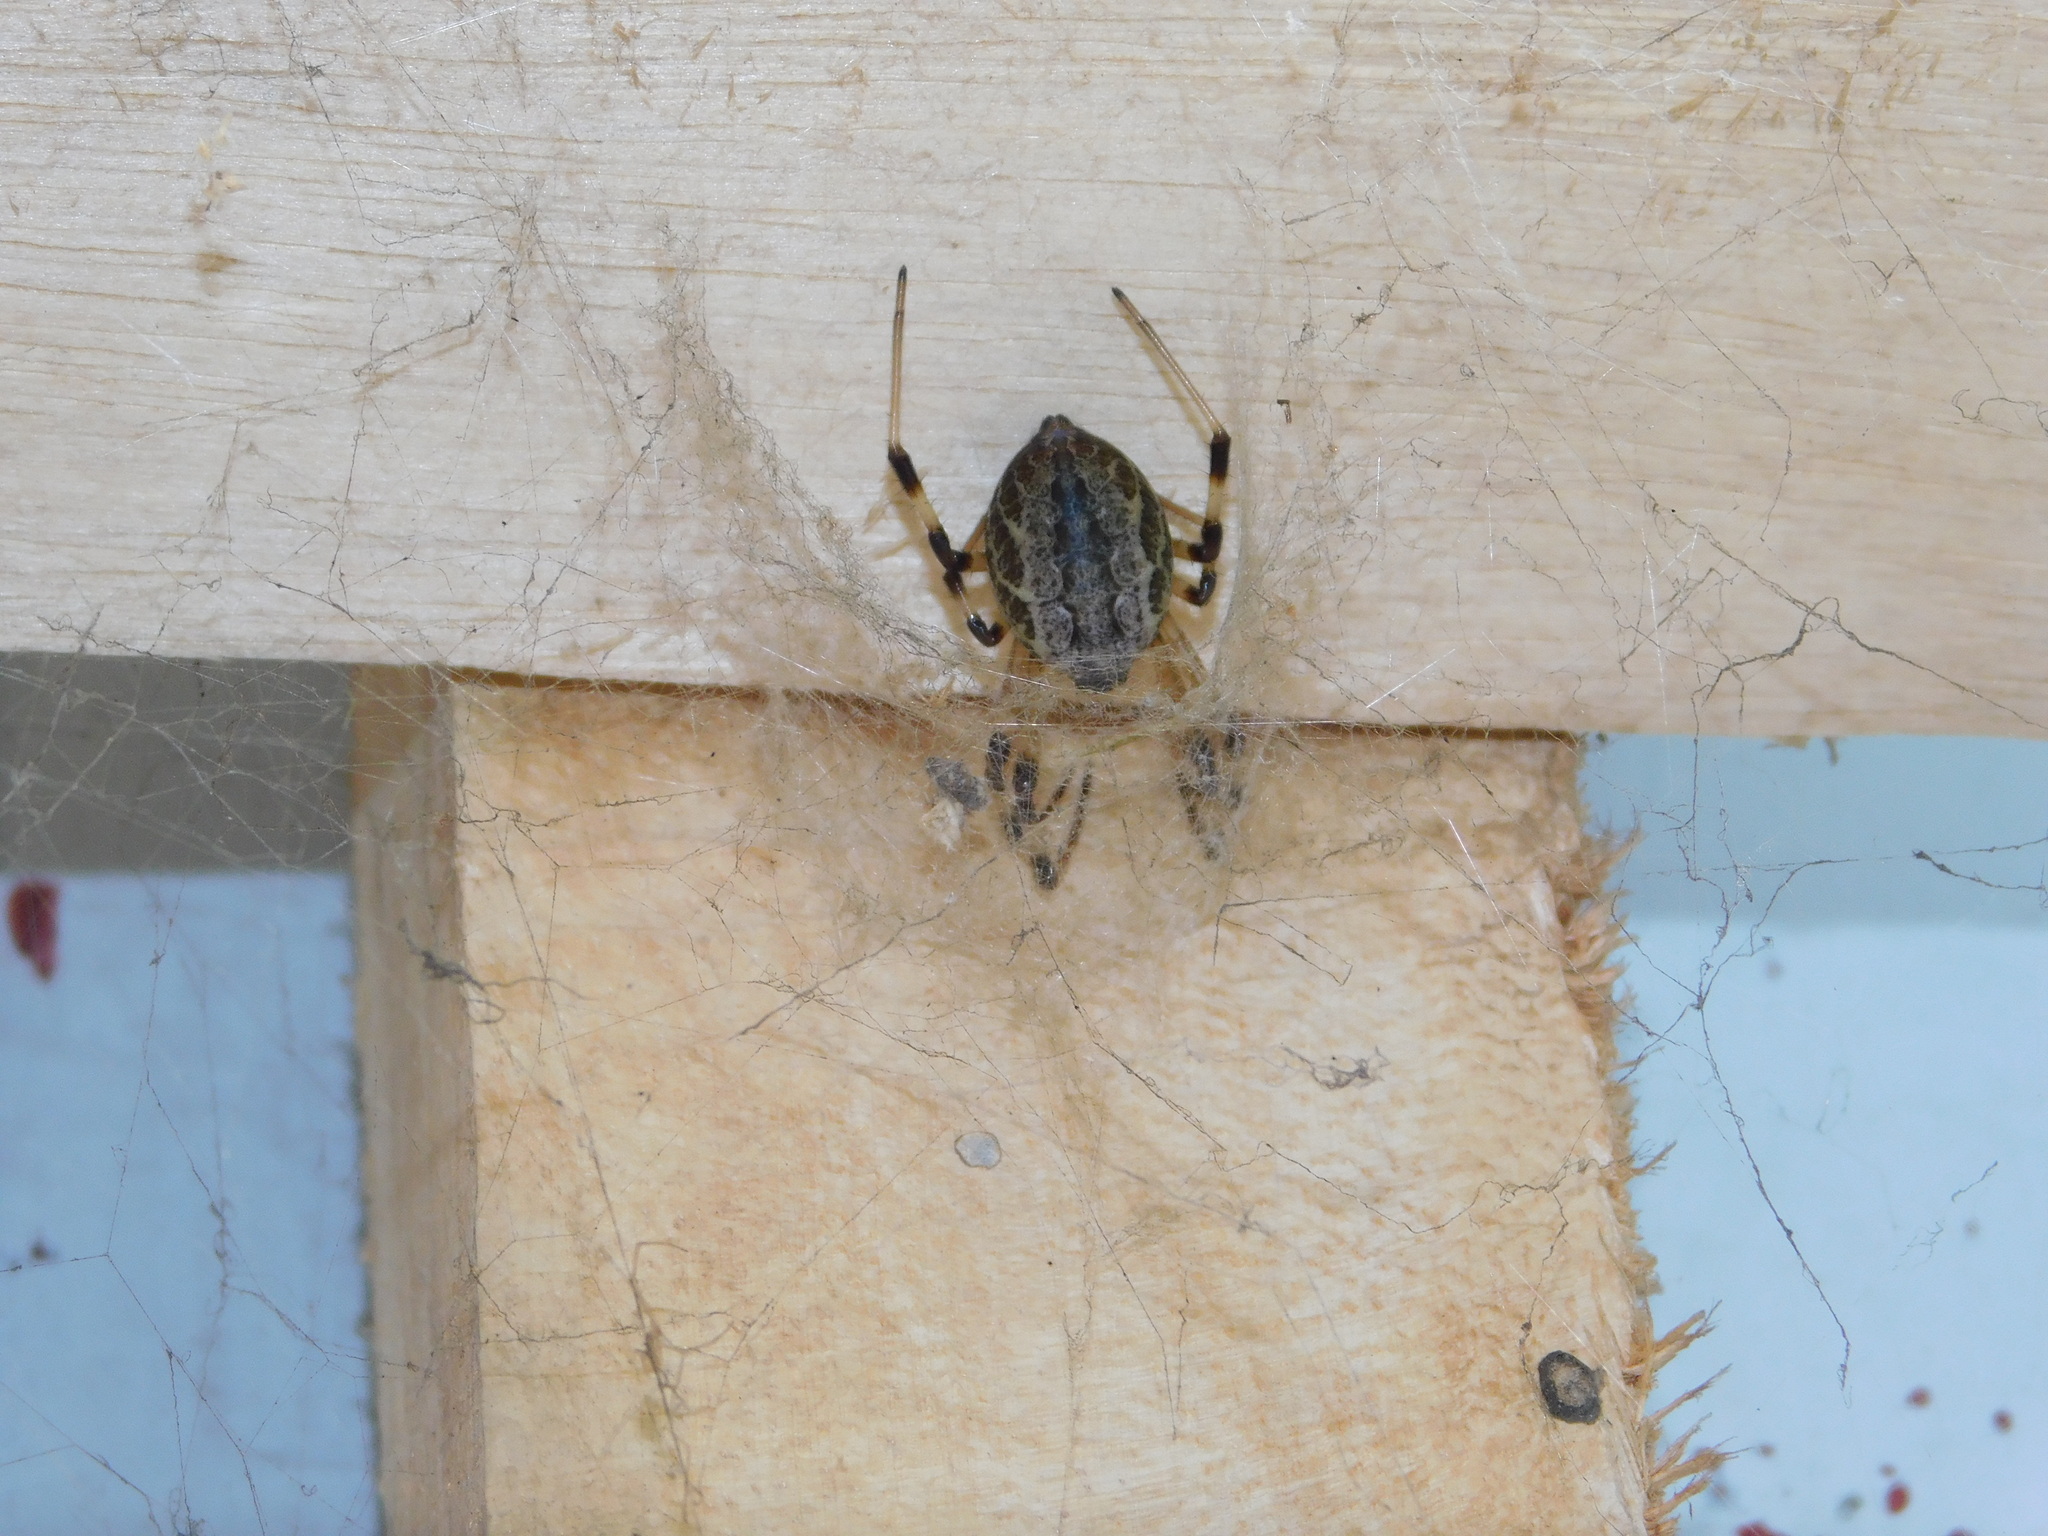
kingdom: Animalia
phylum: Arthropoda
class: Arachnida
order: Araneae
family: Araneidae
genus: Nephilengys
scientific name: Nephilengys malabarensis
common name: Asian hermit spider
